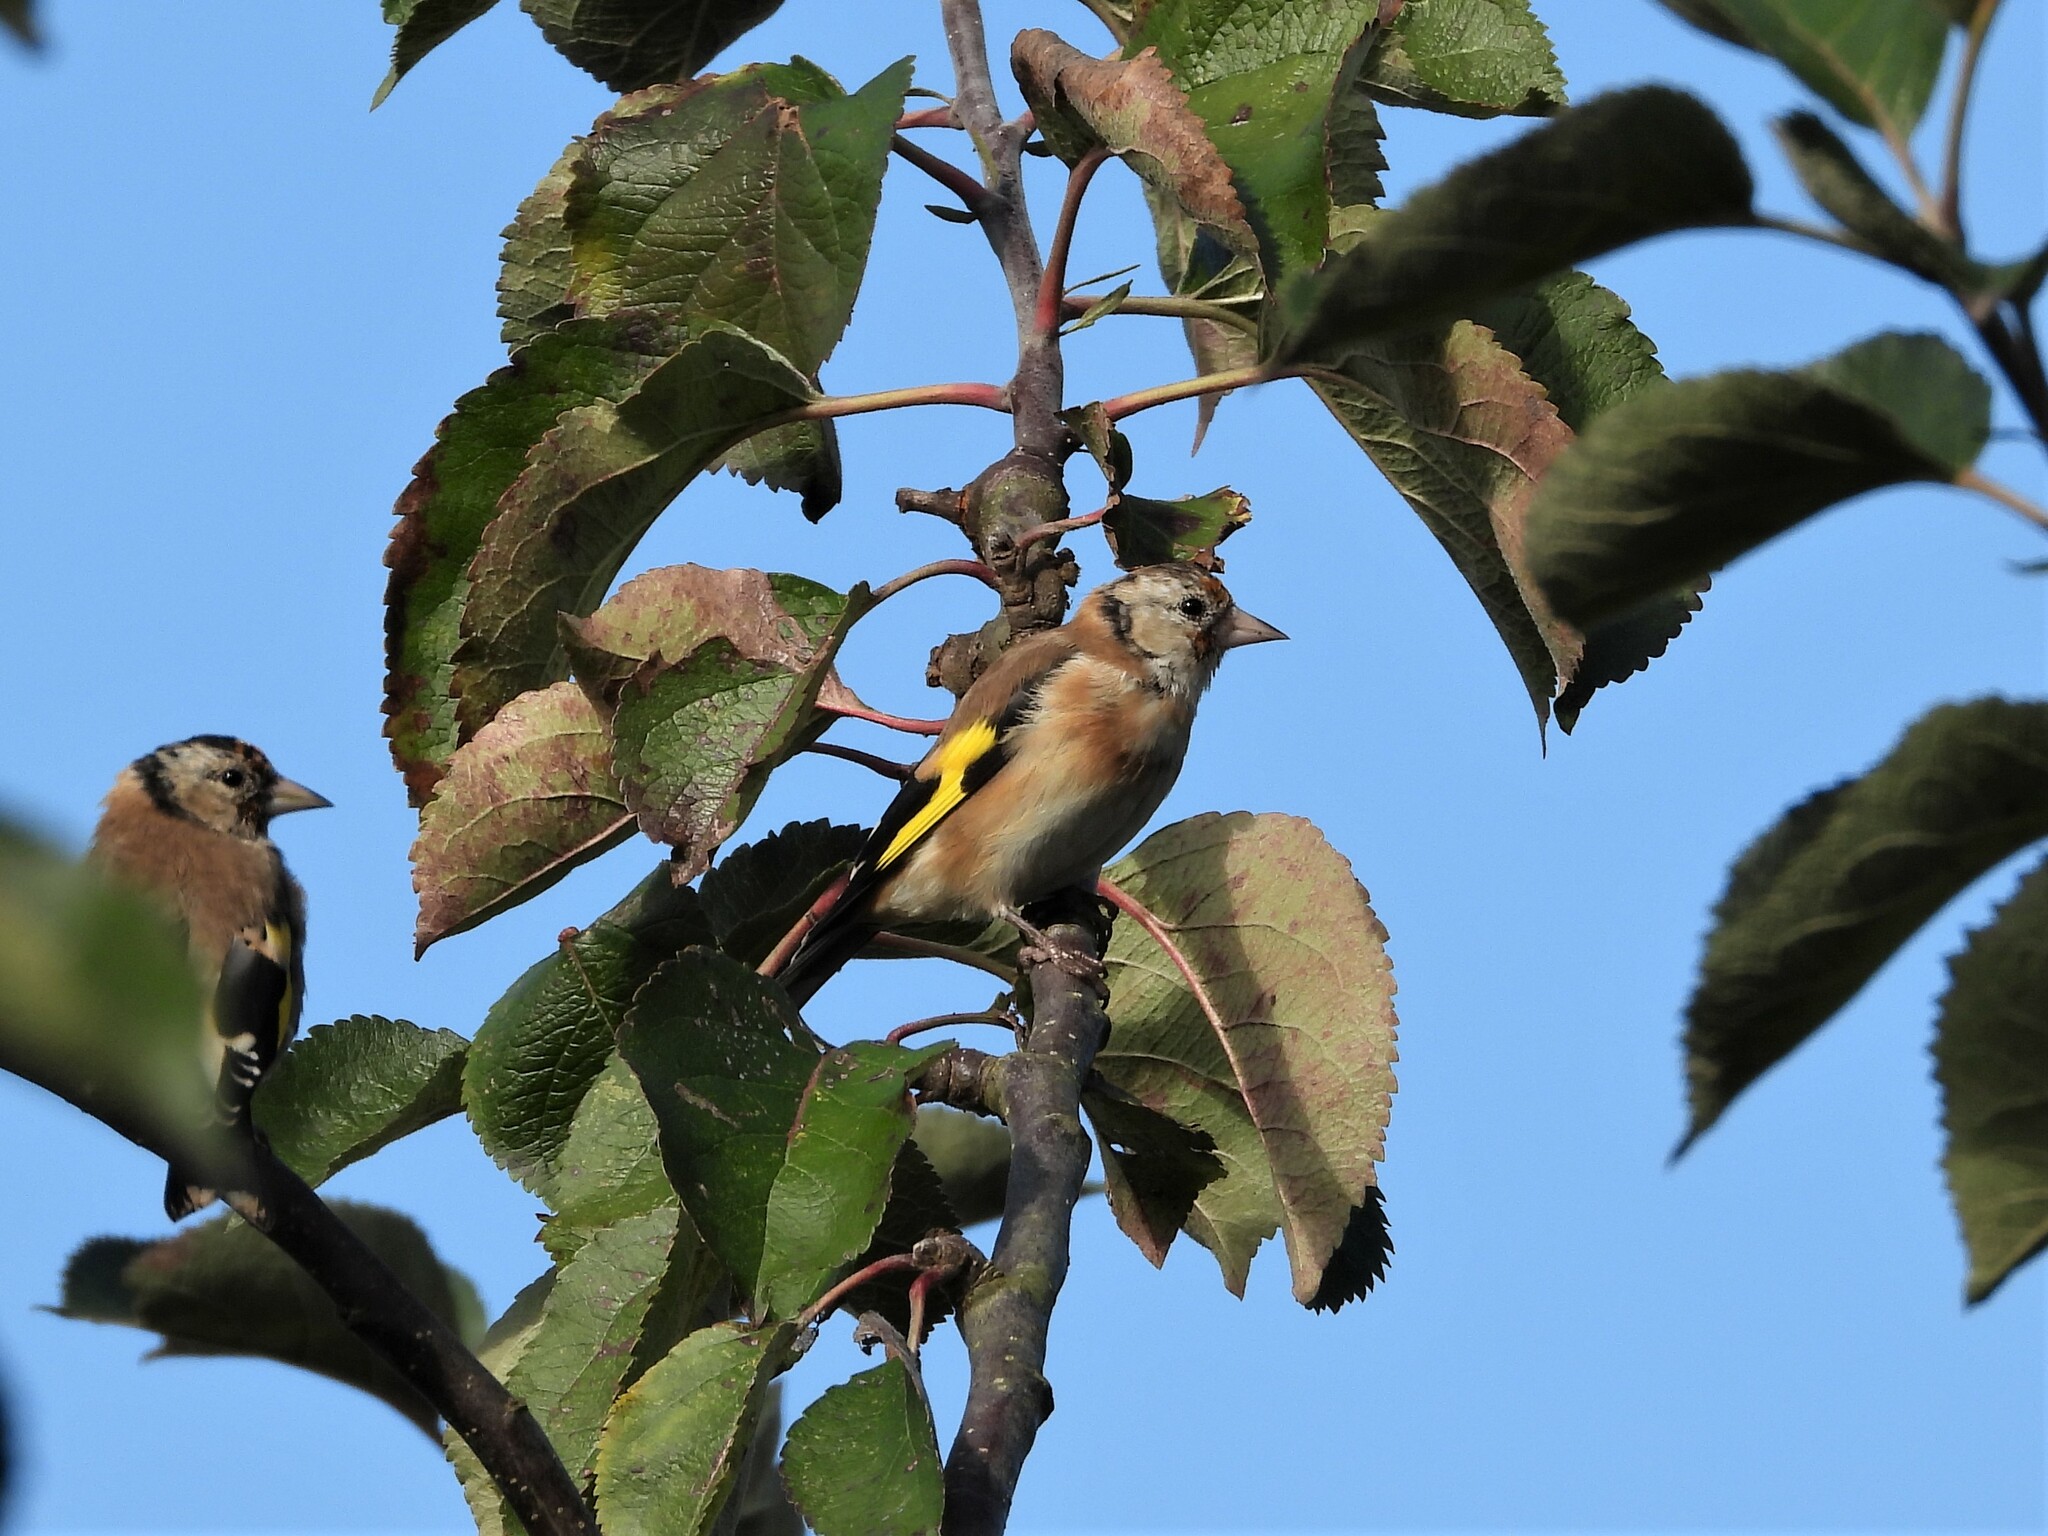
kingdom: Animalia
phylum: Chordata
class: Aves
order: Passeriformes
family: Fringillidae
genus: Carduelis
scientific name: Carduelis carduelis
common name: European goldfinch
